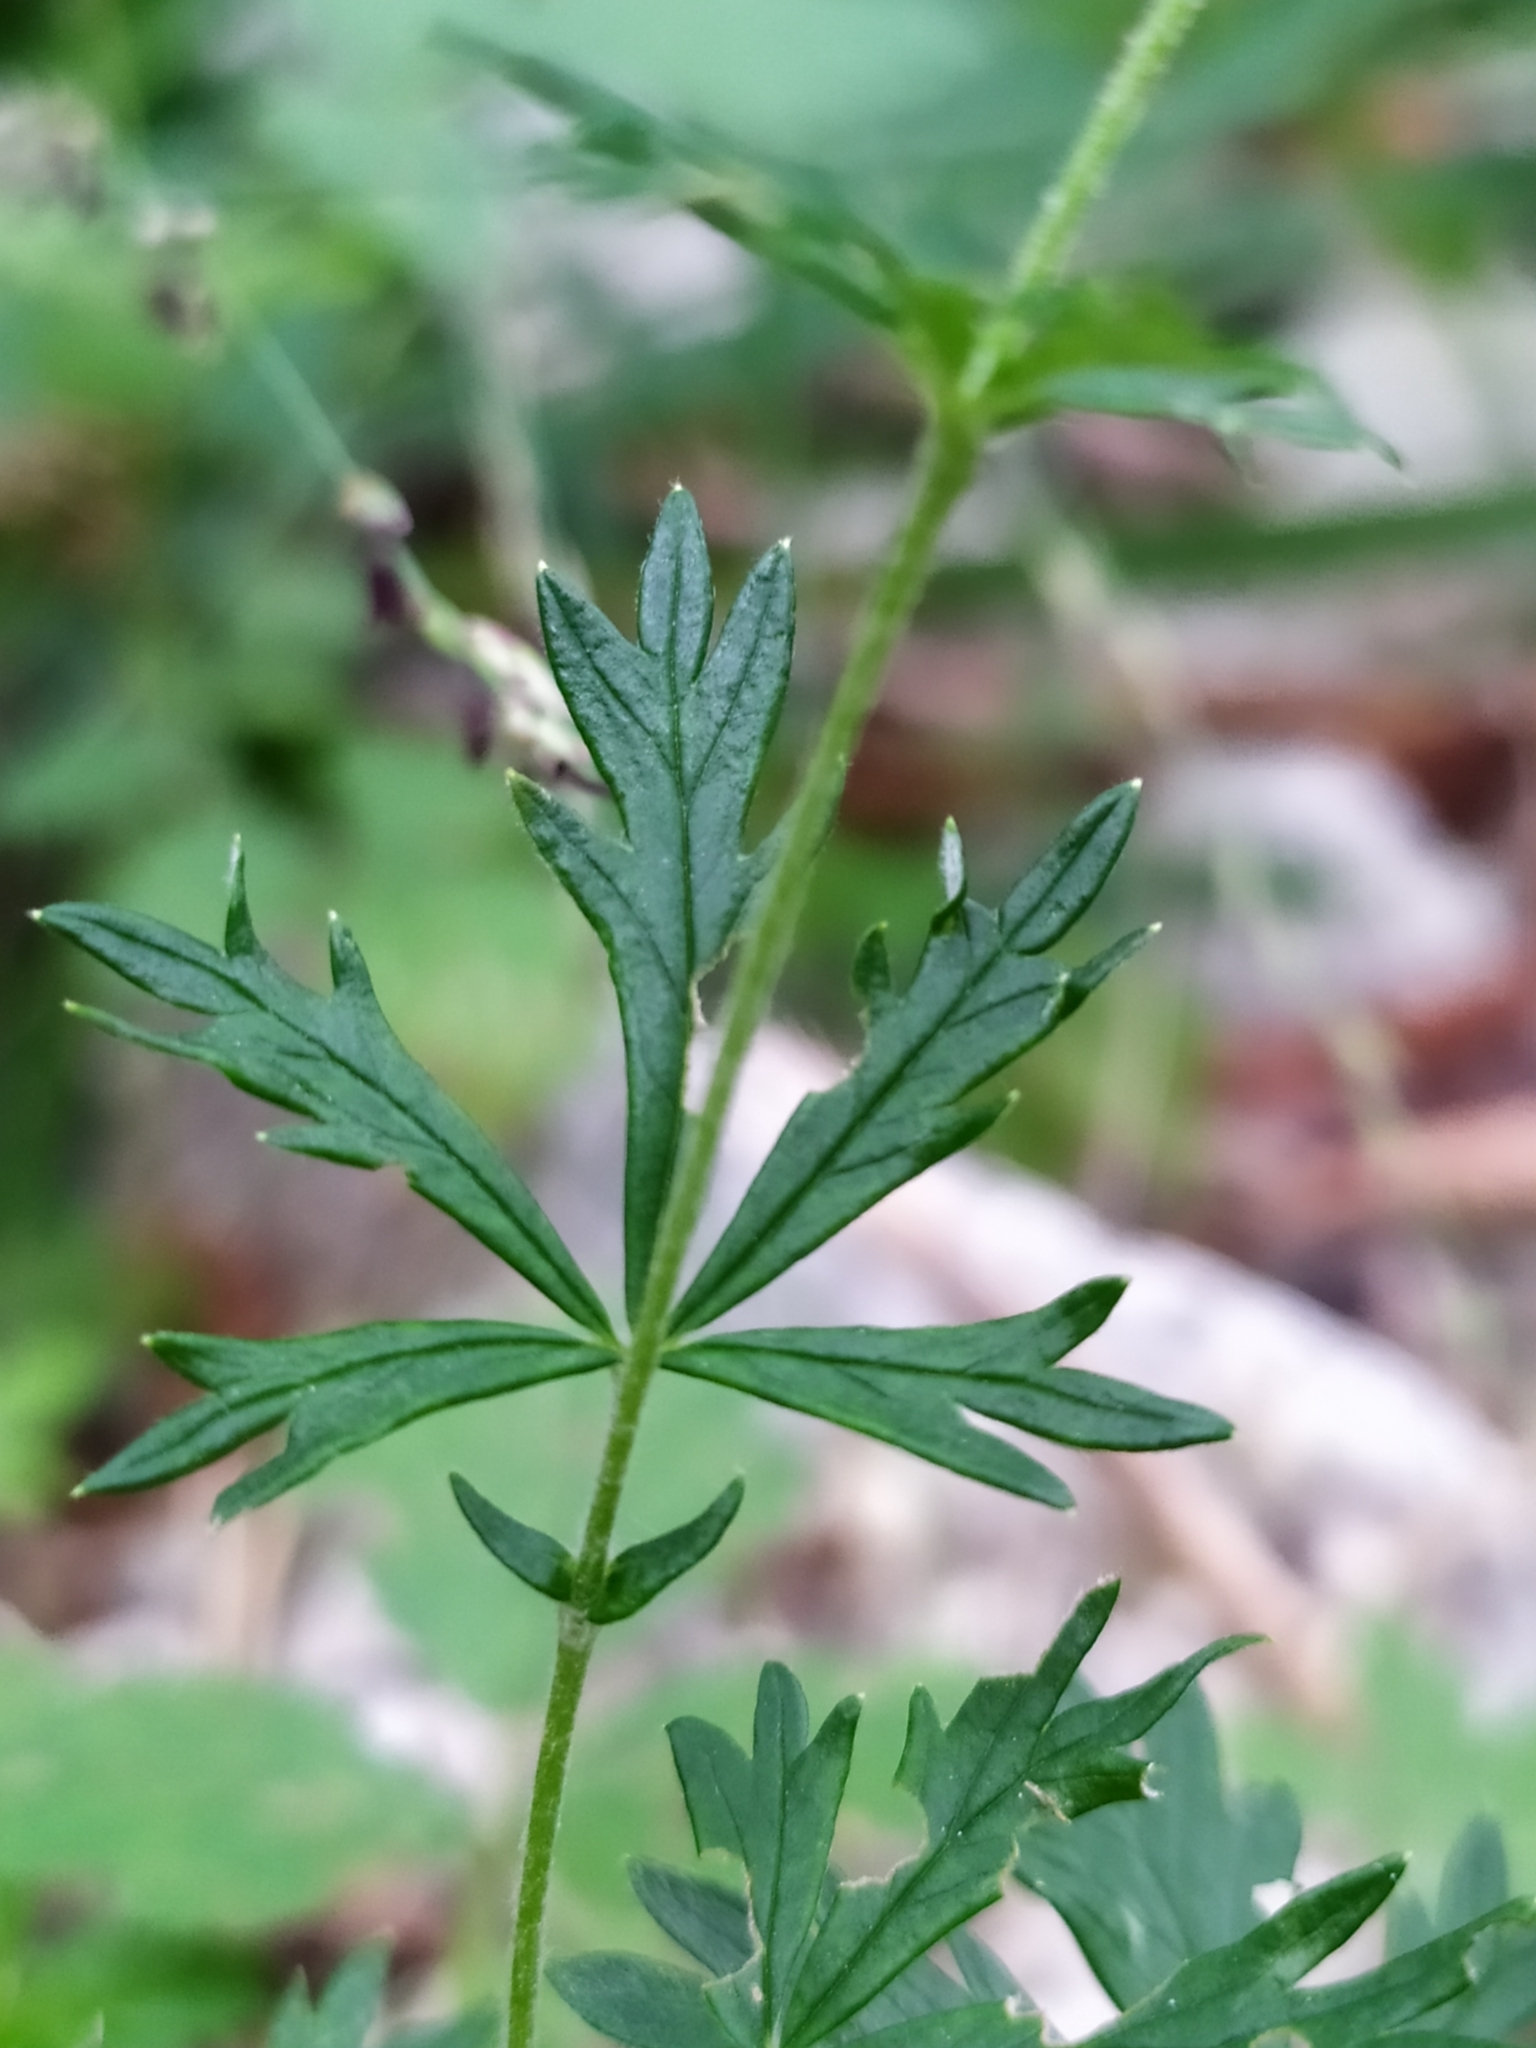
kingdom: Plantae
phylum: Tracheophyta
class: Magnoliopsida
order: Rosales
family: Rosaceae
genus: Potentilla
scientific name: Potentilla argentea
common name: Hoary cinquefoil
